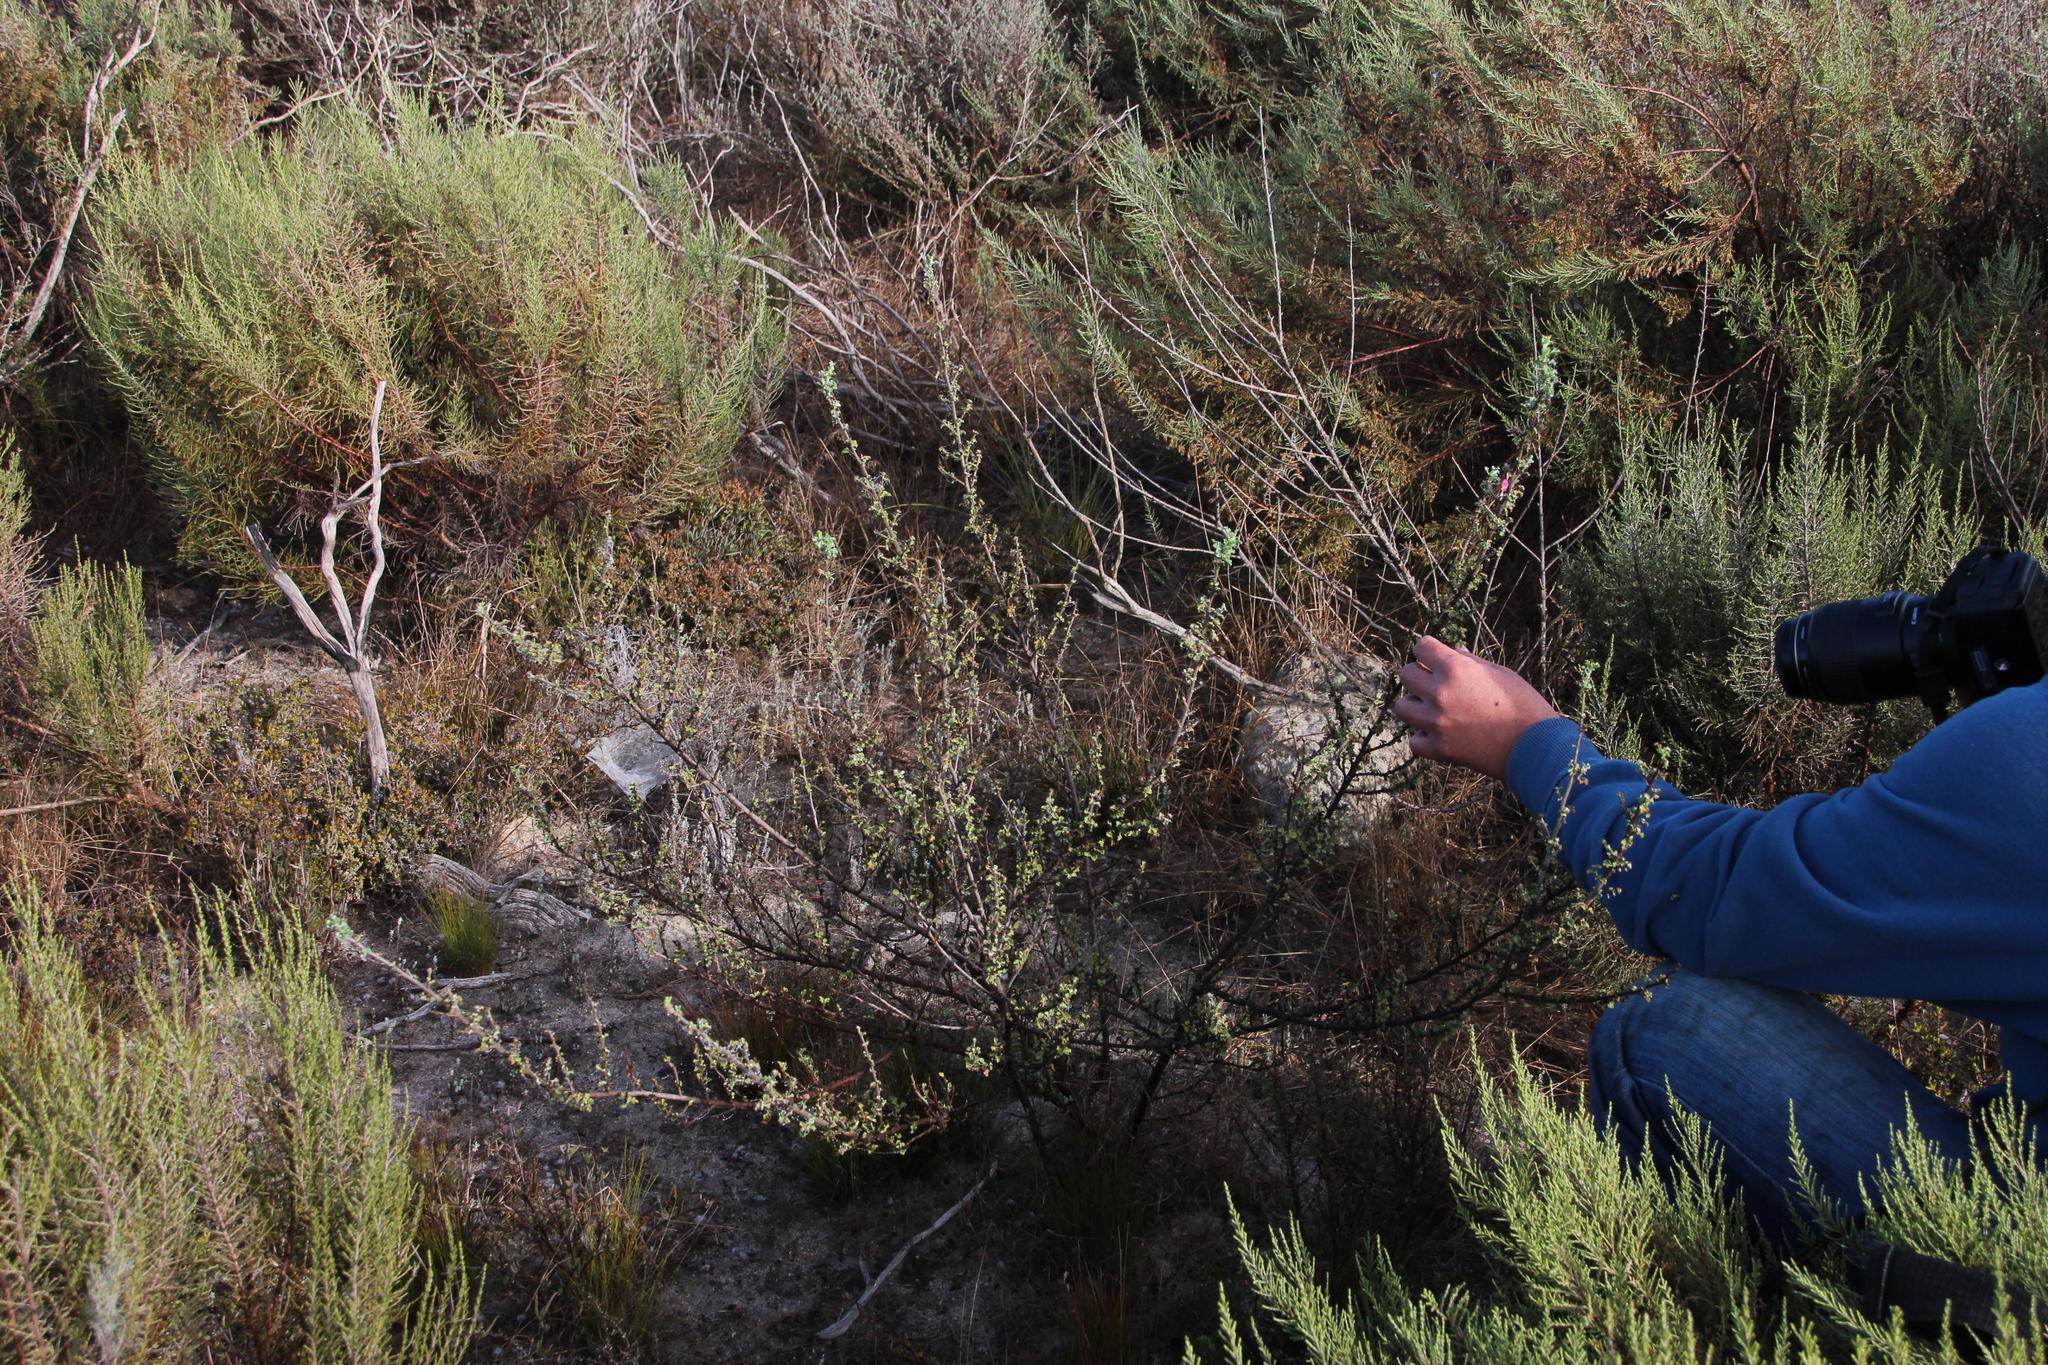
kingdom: Plantae
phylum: Tracheophyta
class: Magnoliopsida
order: Malvales
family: Malvaceae
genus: Anisodontea
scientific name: Anisodontea setosa
